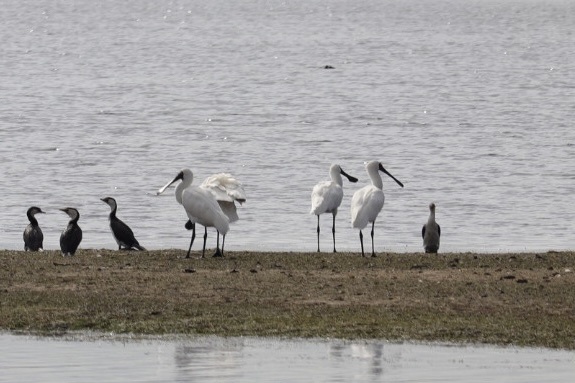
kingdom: Animalia
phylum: Chordata
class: Aves
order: Pelecaniformes
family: Threskiornithidae
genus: Platalea
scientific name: Platalea regia
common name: Royal spoonbill
